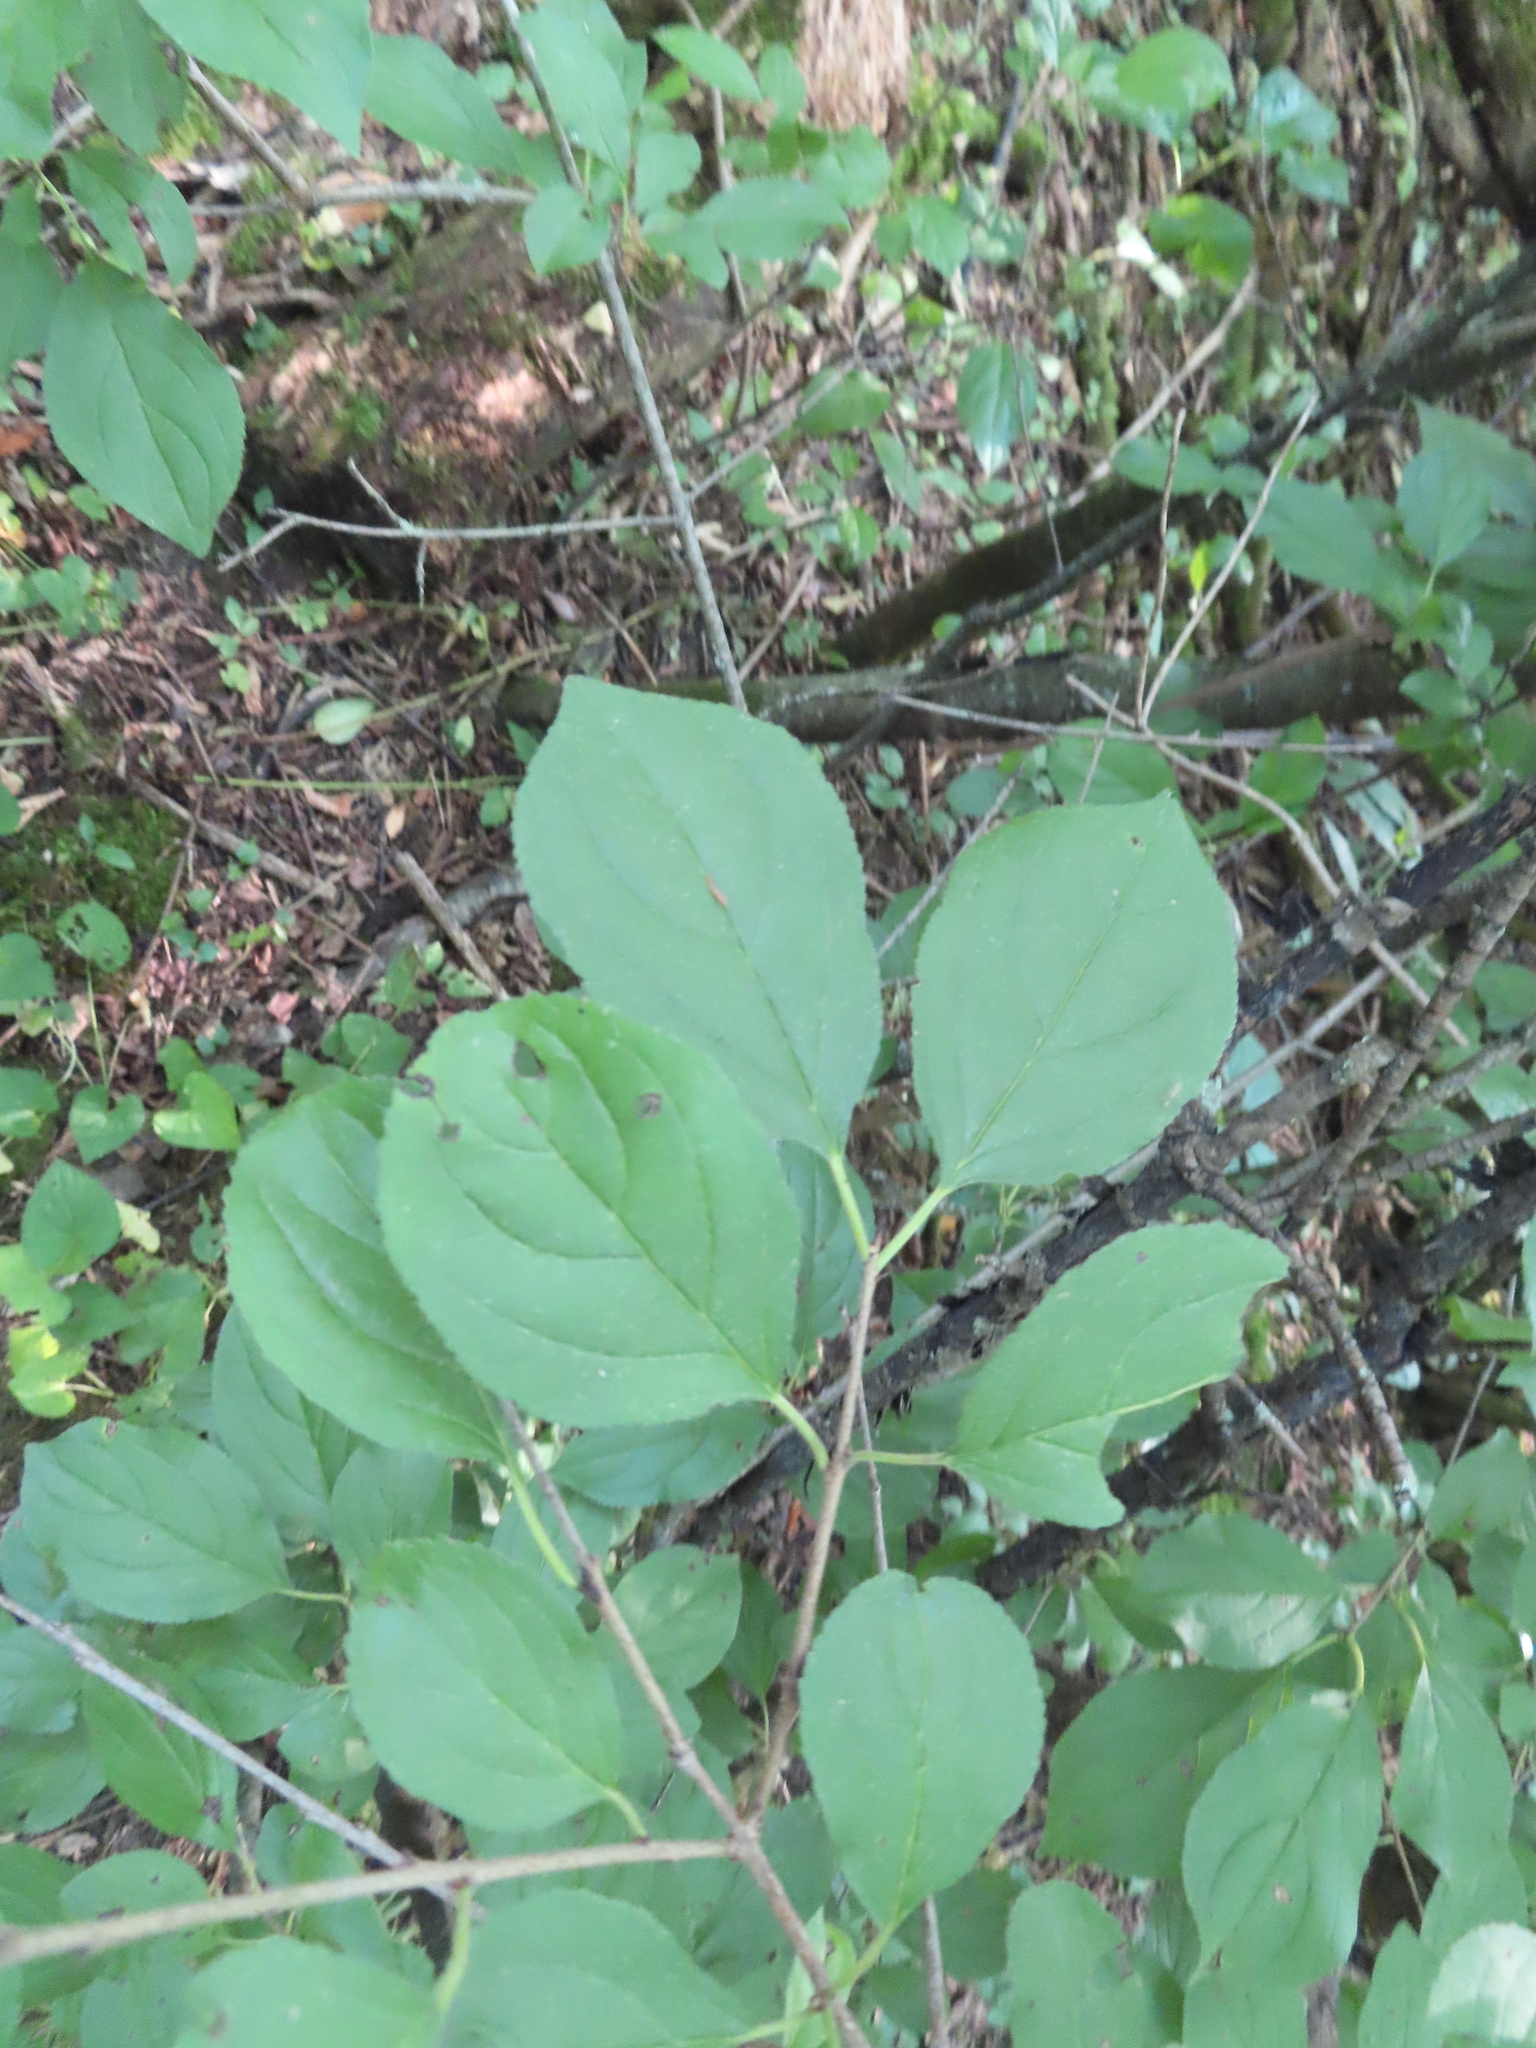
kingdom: Plantae
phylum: Tracheophyta
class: Magnoliopsida
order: Rosales
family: Rhamnaceae
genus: Rhamnus
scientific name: Rhamnus cathartica
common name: Common buckthorn
